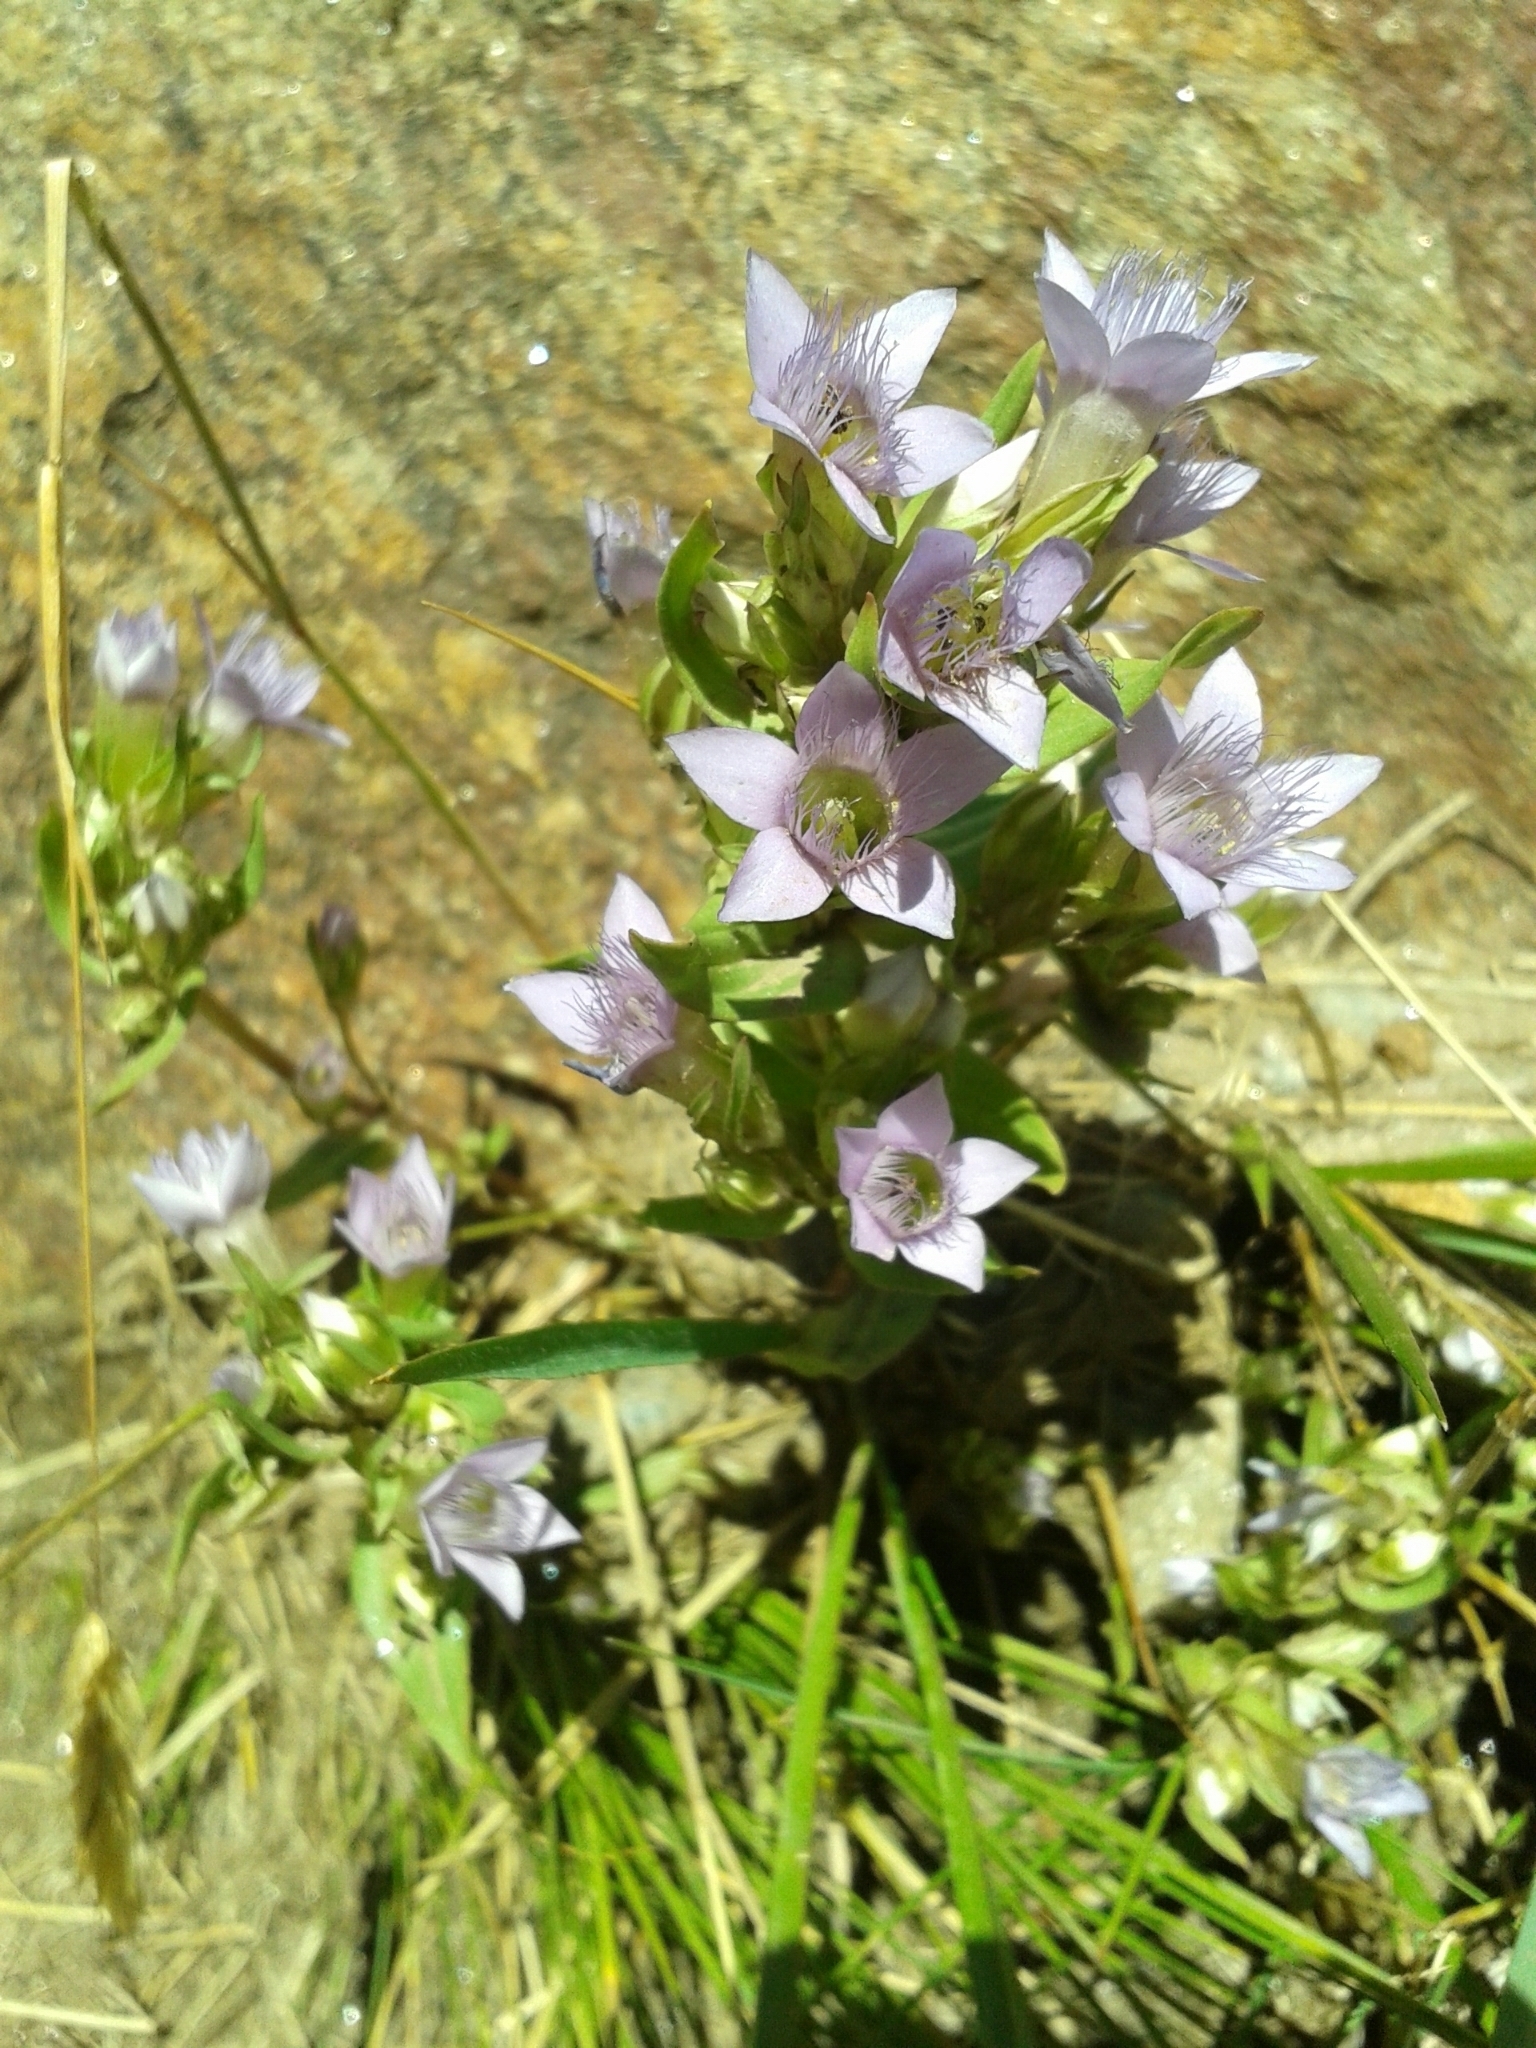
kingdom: Plantae
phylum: Tracheophyta
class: Magnoliopsida
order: Gentianales
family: Gentianaceae
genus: Gentianella
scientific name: Gentianella ramosa
